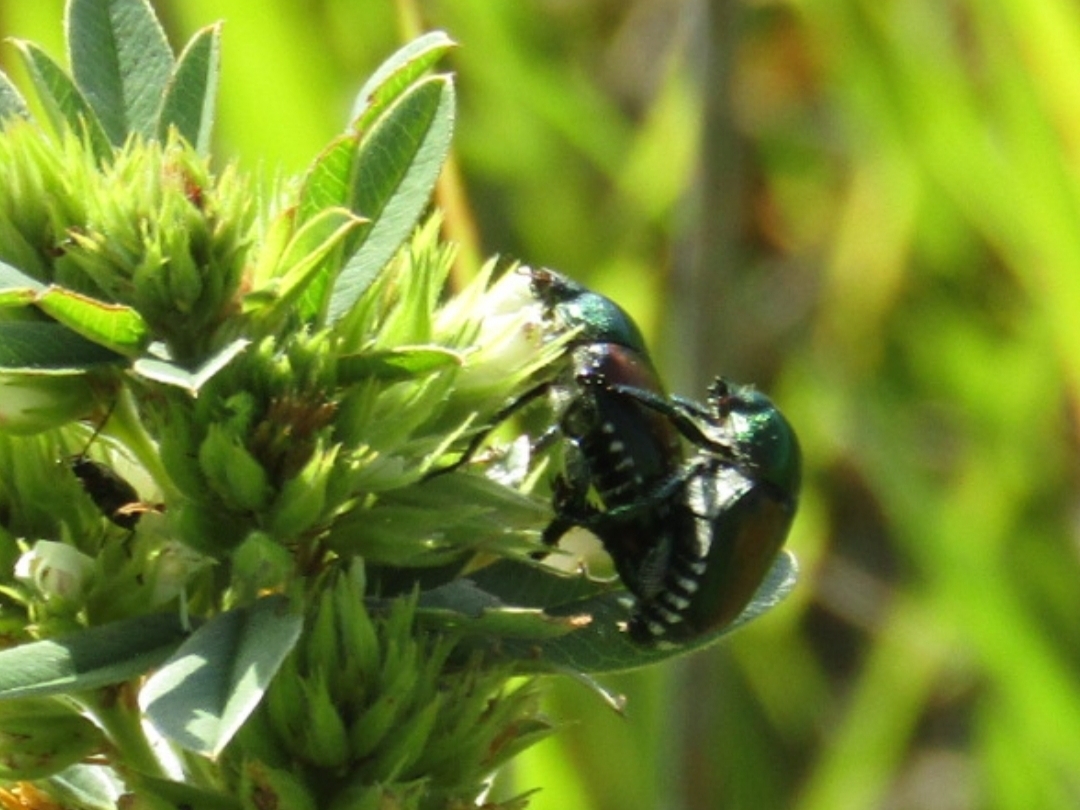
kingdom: Animalia
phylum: Arthropoda
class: Insecta
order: Coleoptera
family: Scarabaeidae
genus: Popillia
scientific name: Popillia japonica
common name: Japanese beetle
